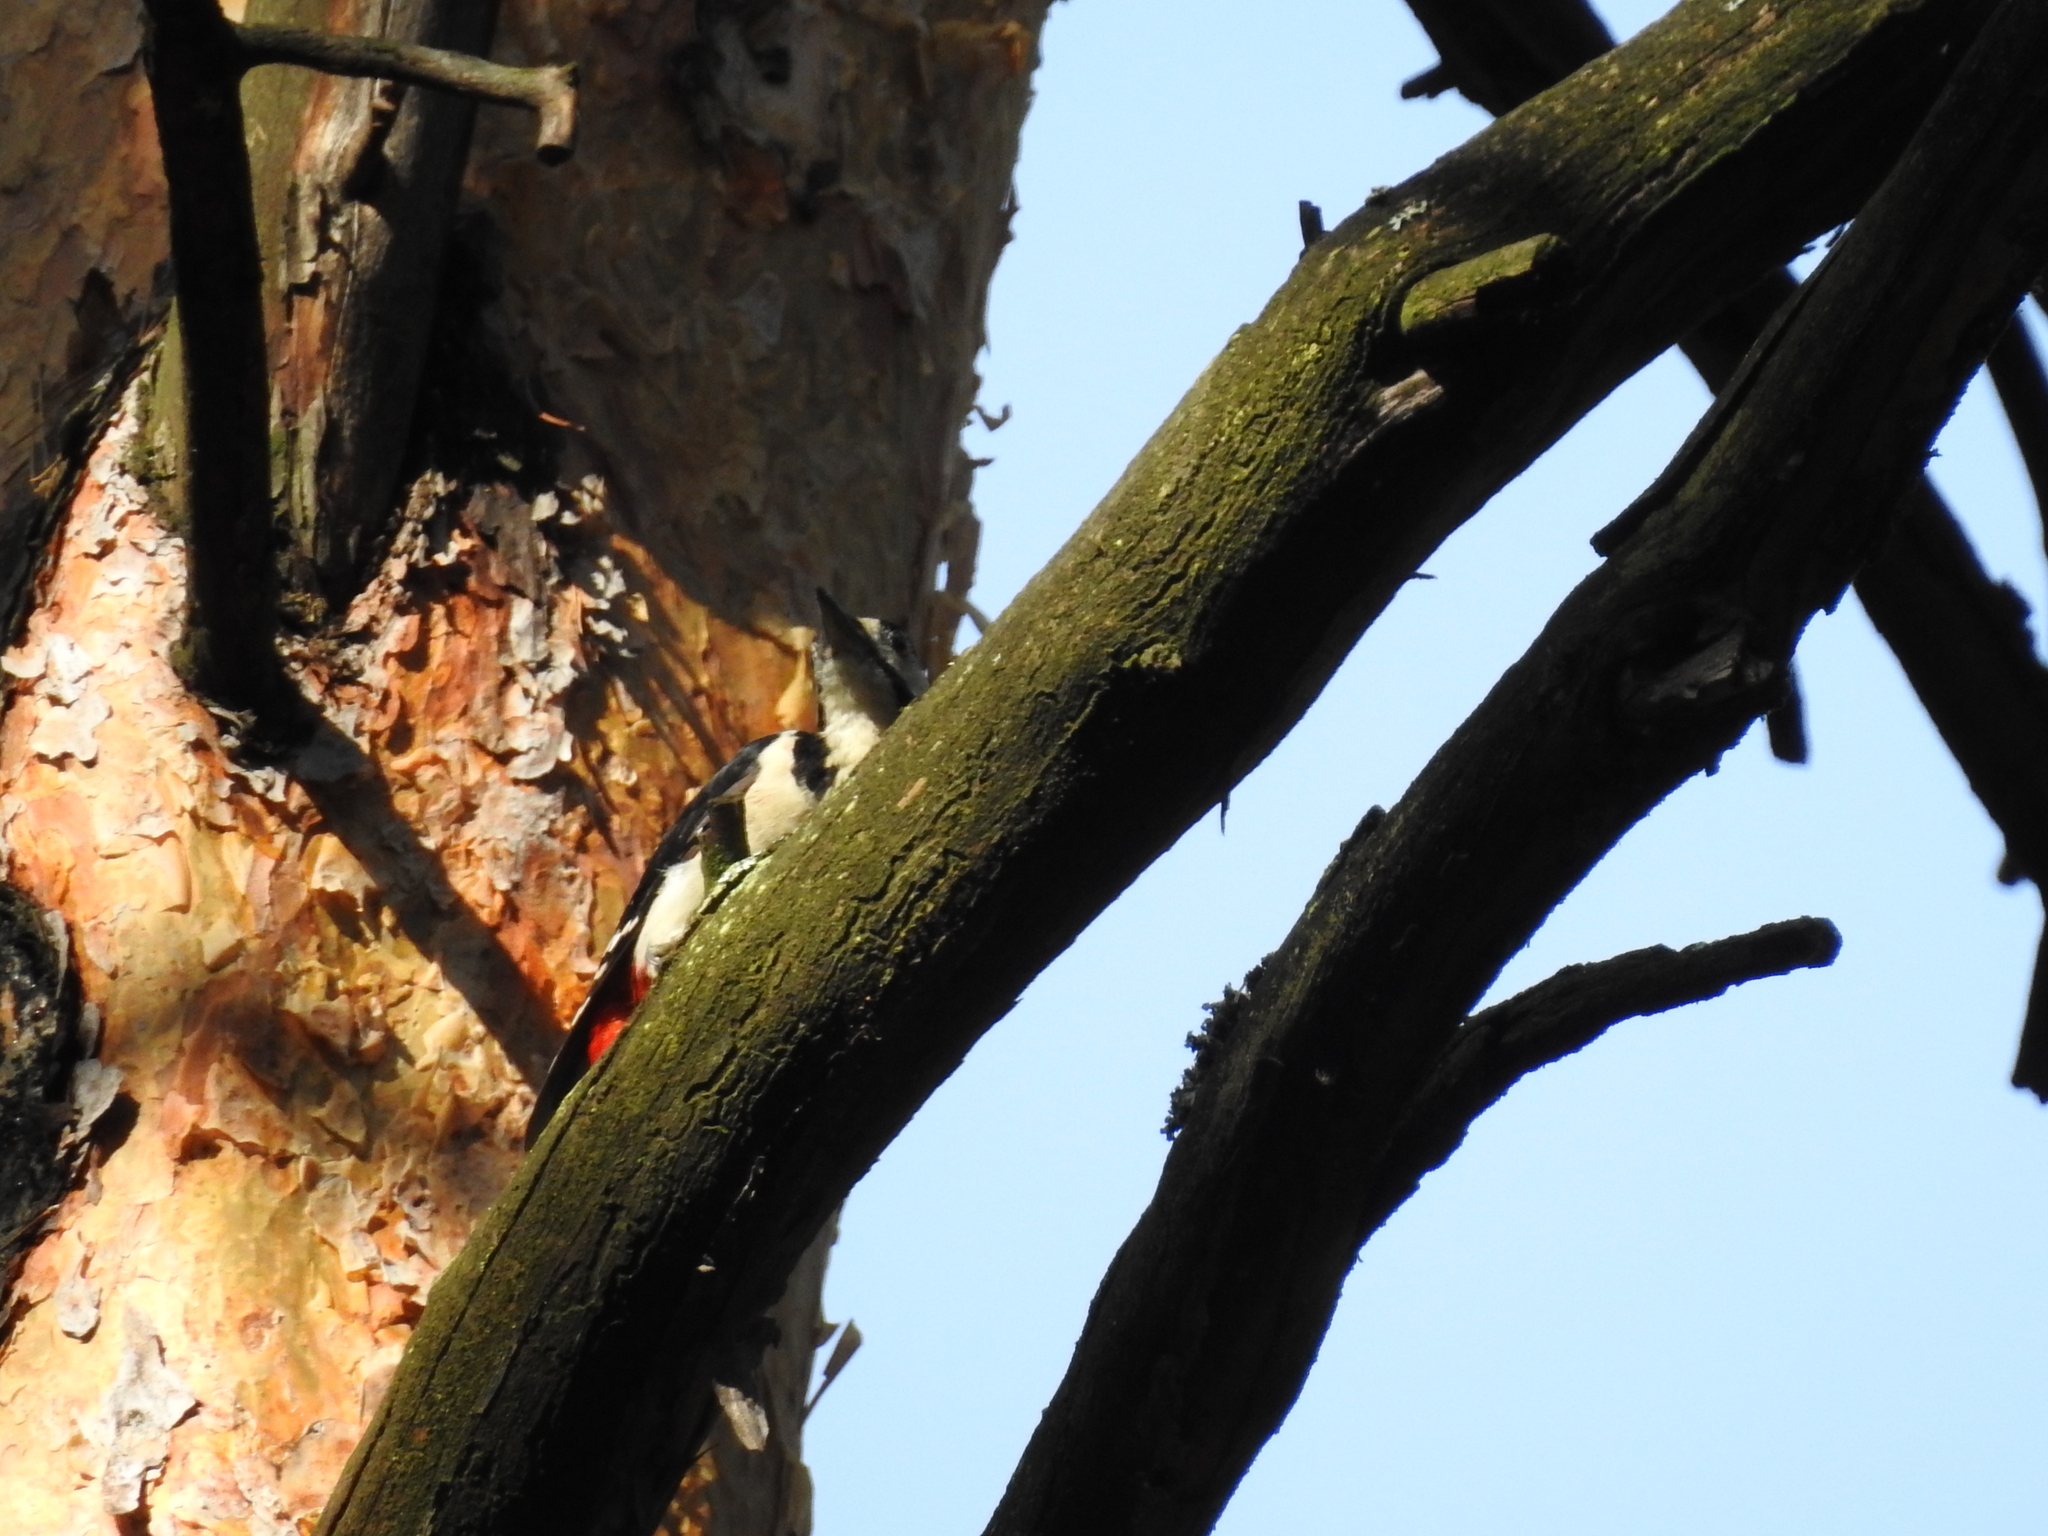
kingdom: Animalia
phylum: Chordata
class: Aves
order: Piciformes
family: Picidae
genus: Dendrocopos
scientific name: Dendrocopos major
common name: Great spotted woodpecker
